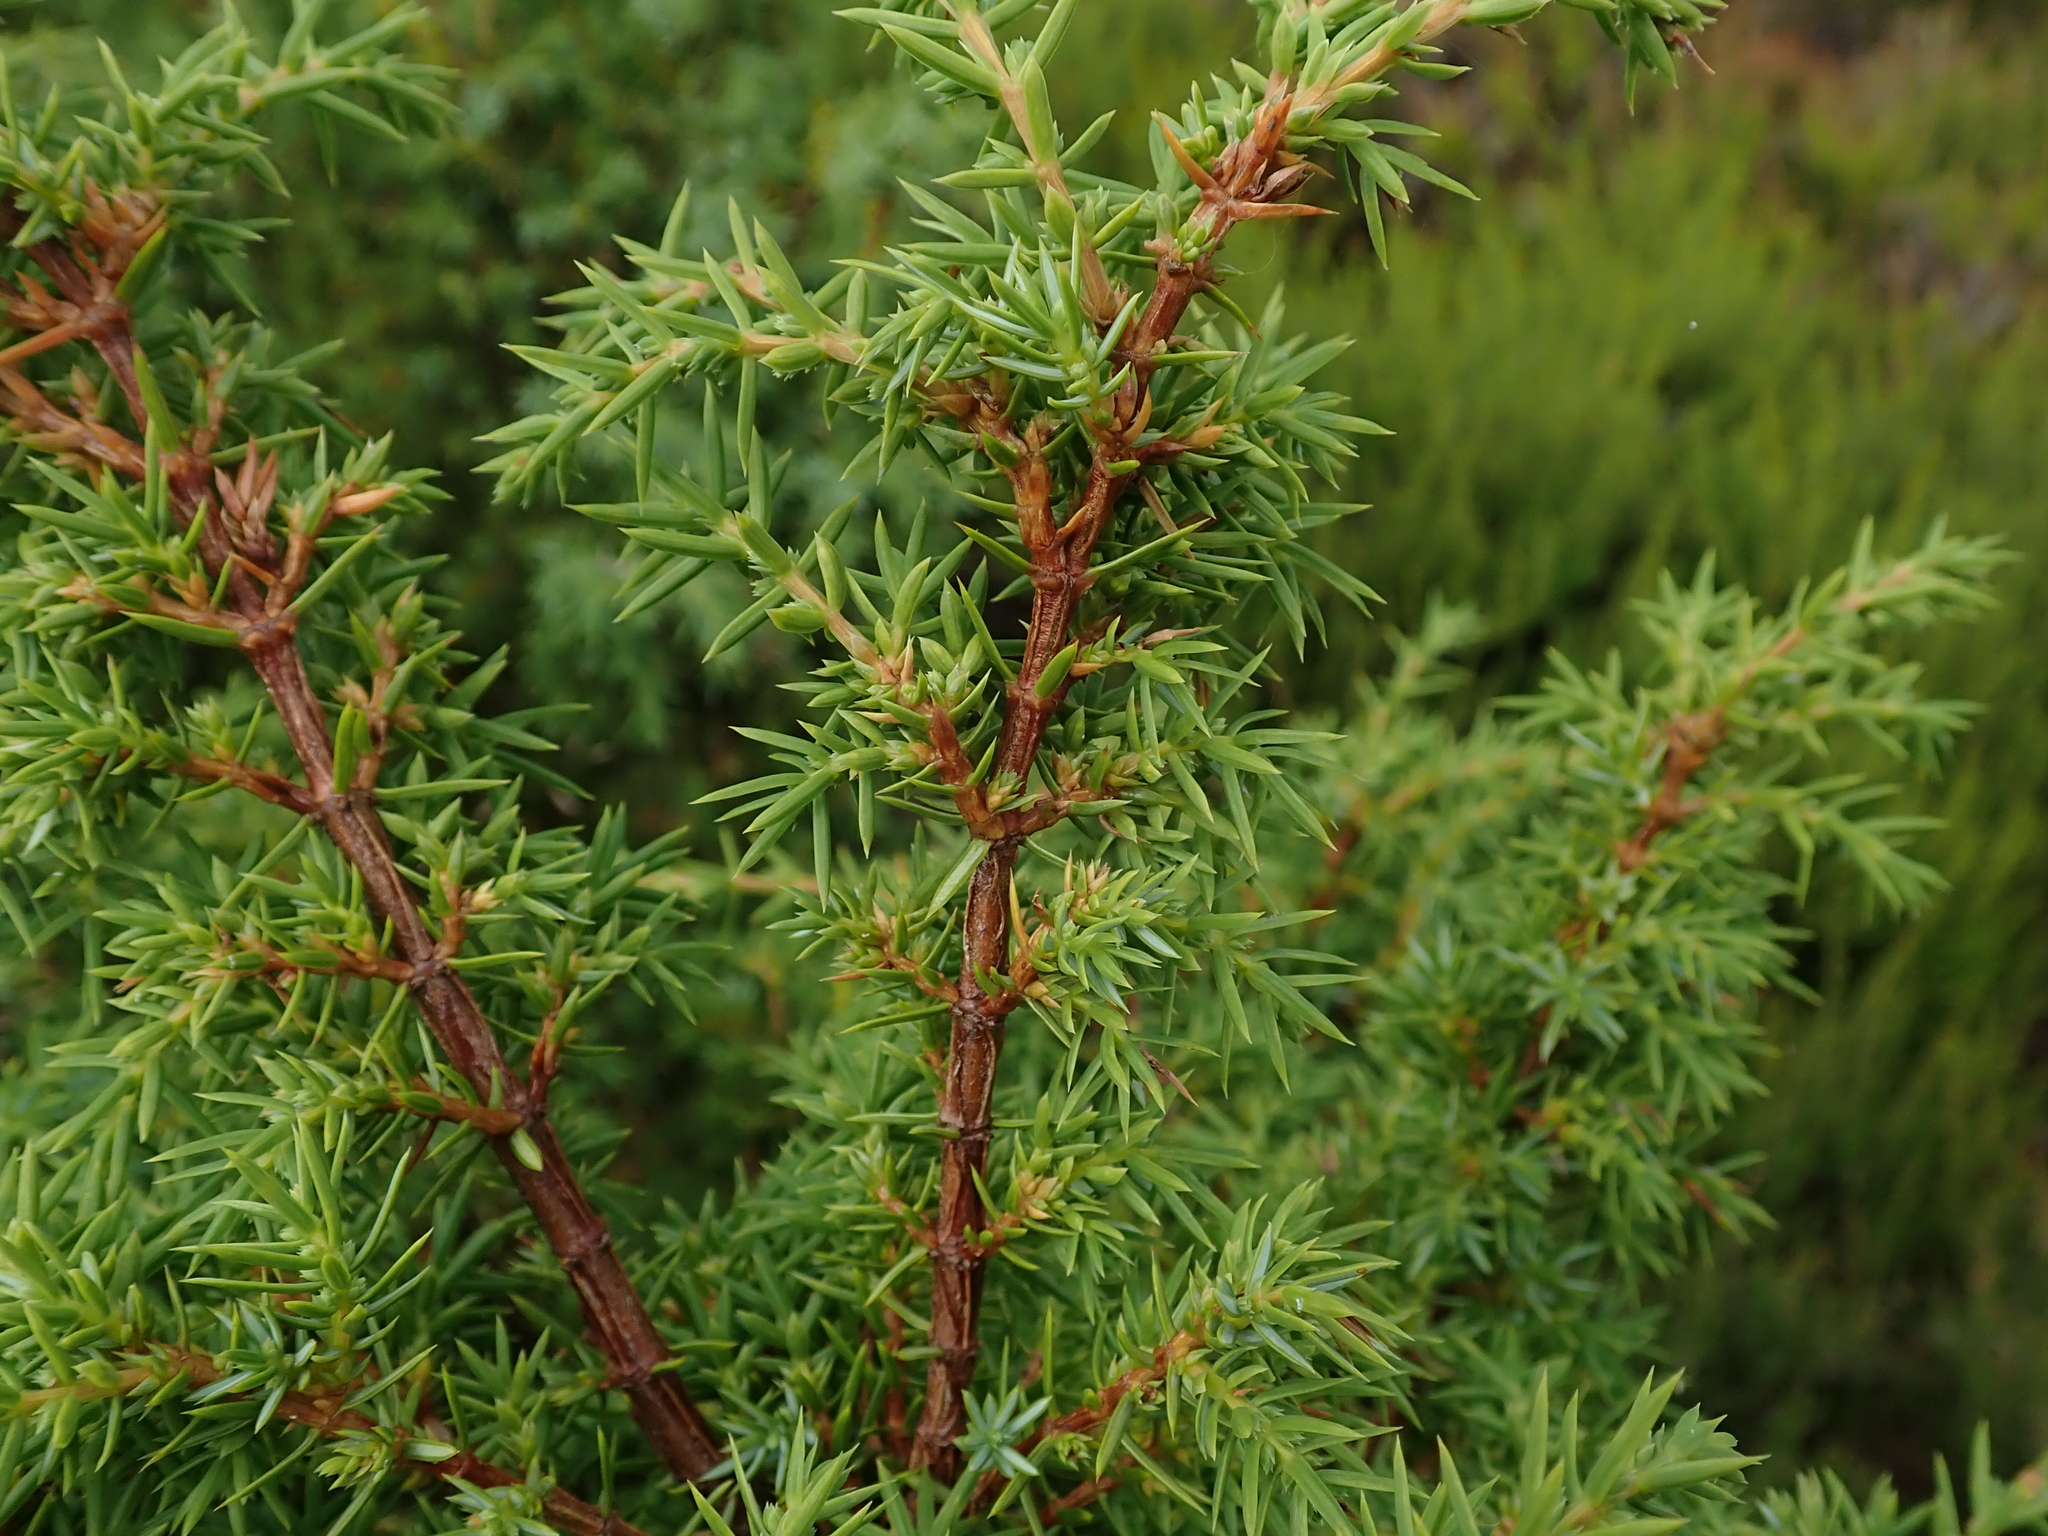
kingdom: Plantae
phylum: Tracheophyta
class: Pinopsida
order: Pinales
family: Cupressaceae
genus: Juniperus
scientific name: Juniperus communis
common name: Common juniper
